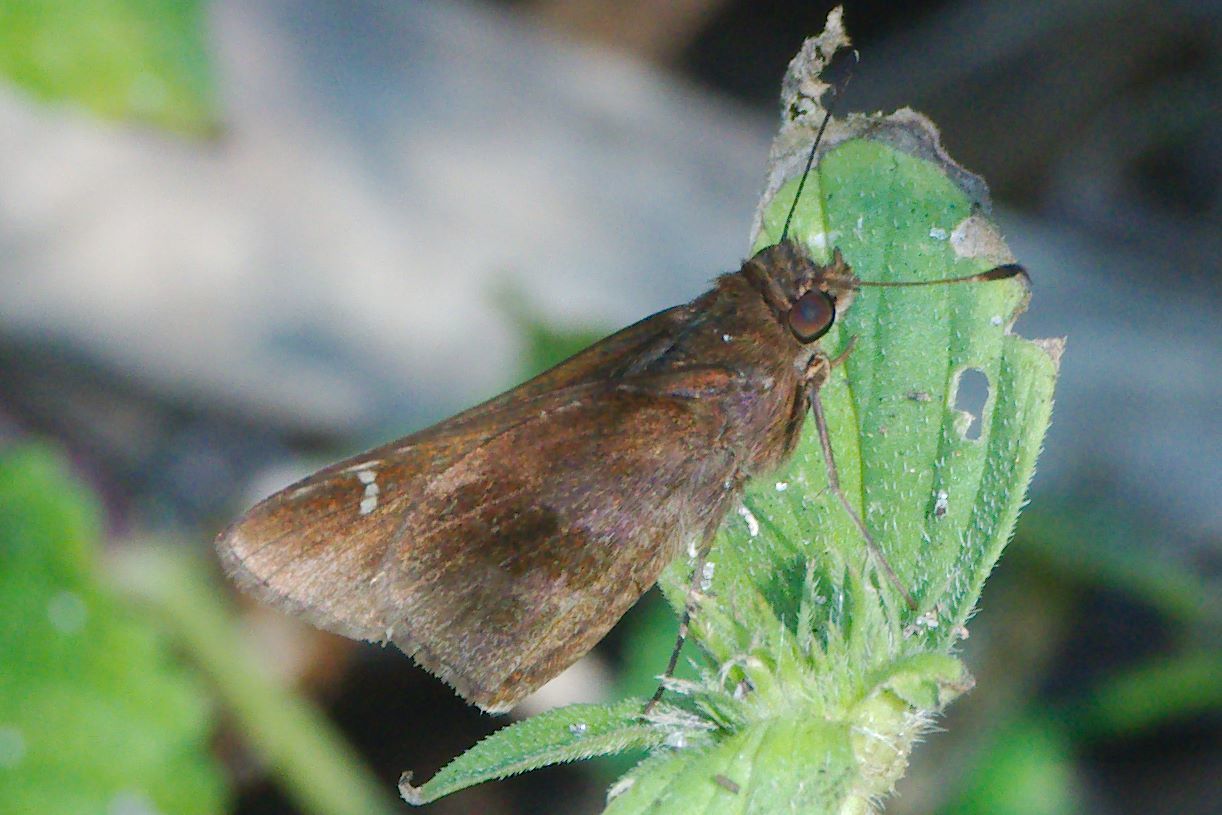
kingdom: Animalia
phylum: Arthropoda
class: Insecta
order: Lepidoptera
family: Hesperiidae
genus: Lerema
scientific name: Lerema accius
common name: Clouded skipper
